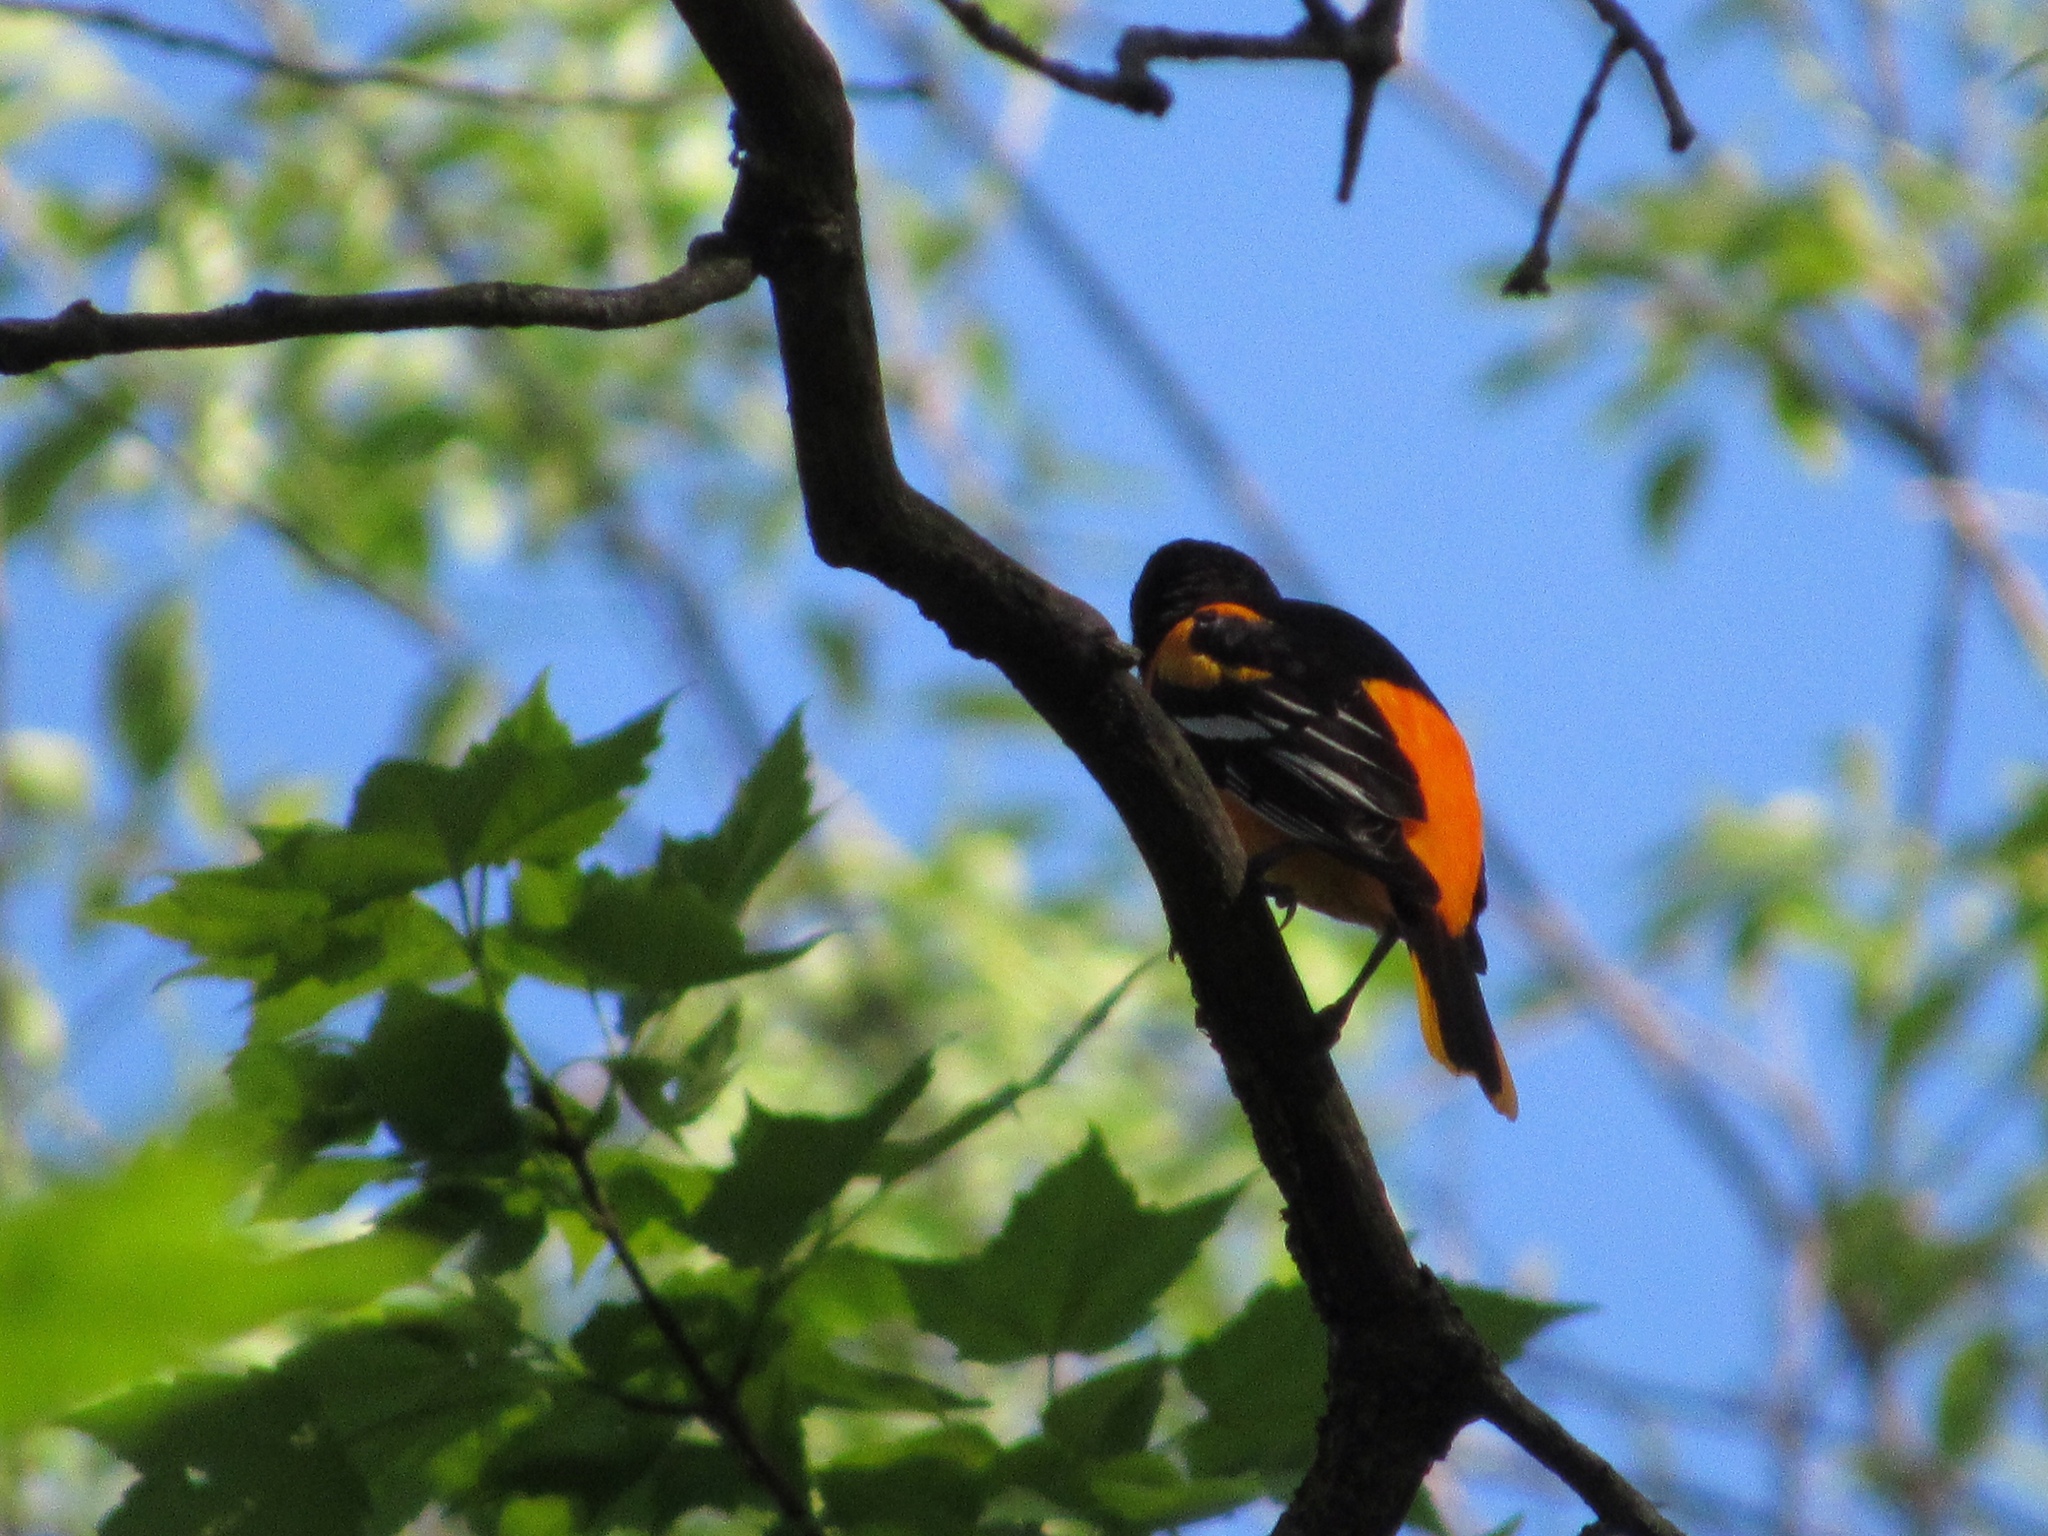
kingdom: Animalia
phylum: Chordata
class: Aves
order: Passeriformes
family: Icteridae
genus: Icterus
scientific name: Icterus galbula
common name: Baltimore oriole
